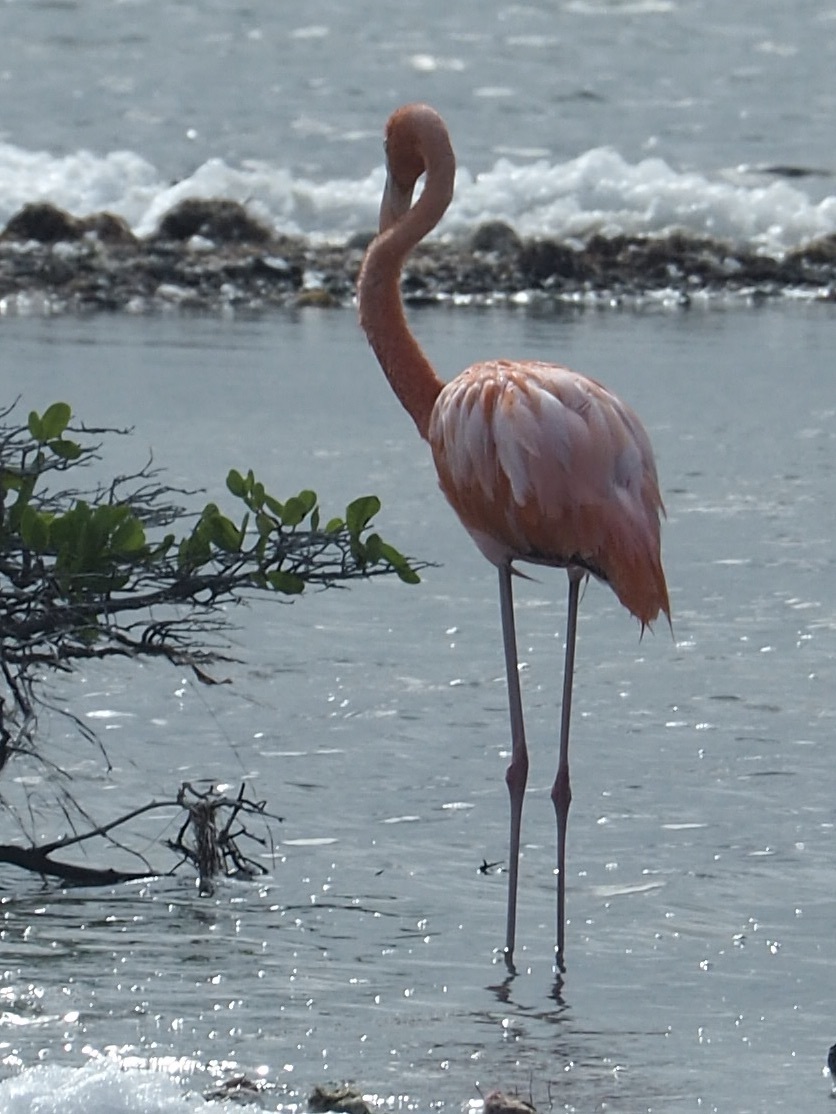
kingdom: Animalia
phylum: Chordata
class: Aves
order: Phoenicopteriformes
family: Phoenicopteridae
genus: Phoenicopterus
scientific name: Phoenicopterus ruber
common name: American flamingo
